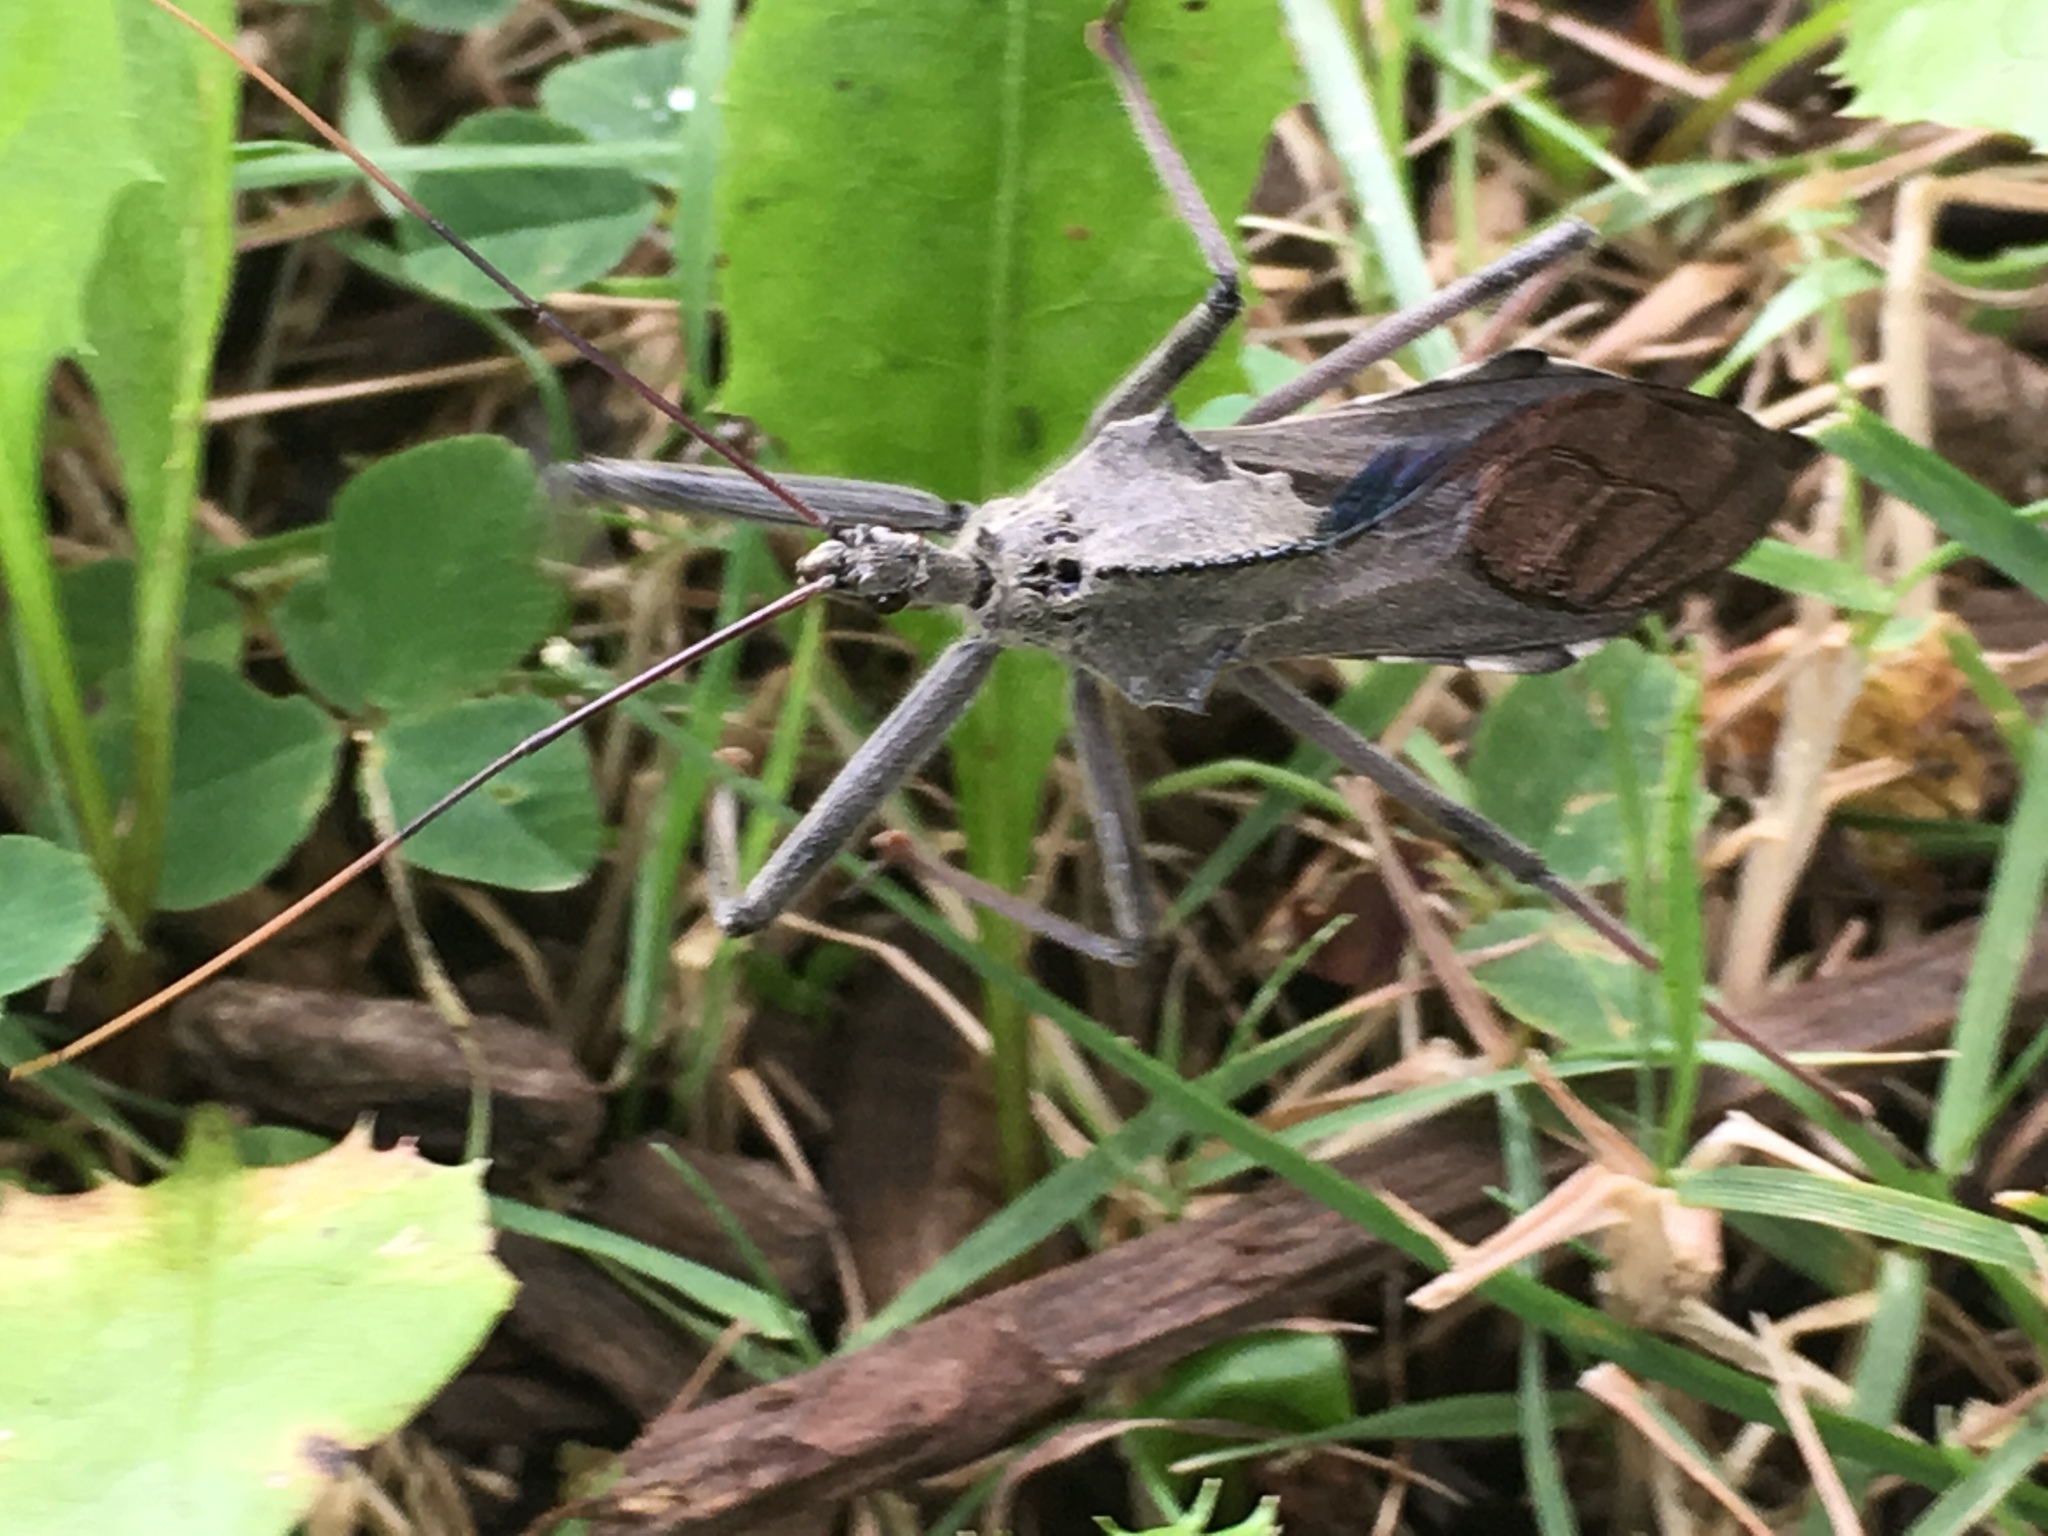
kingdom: Animalia
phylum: Arthropoda
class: Insecta
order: Hemiptera
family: Reduviidae
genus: Arilus
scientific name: Arilus cristatus
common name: North american wheel bug
